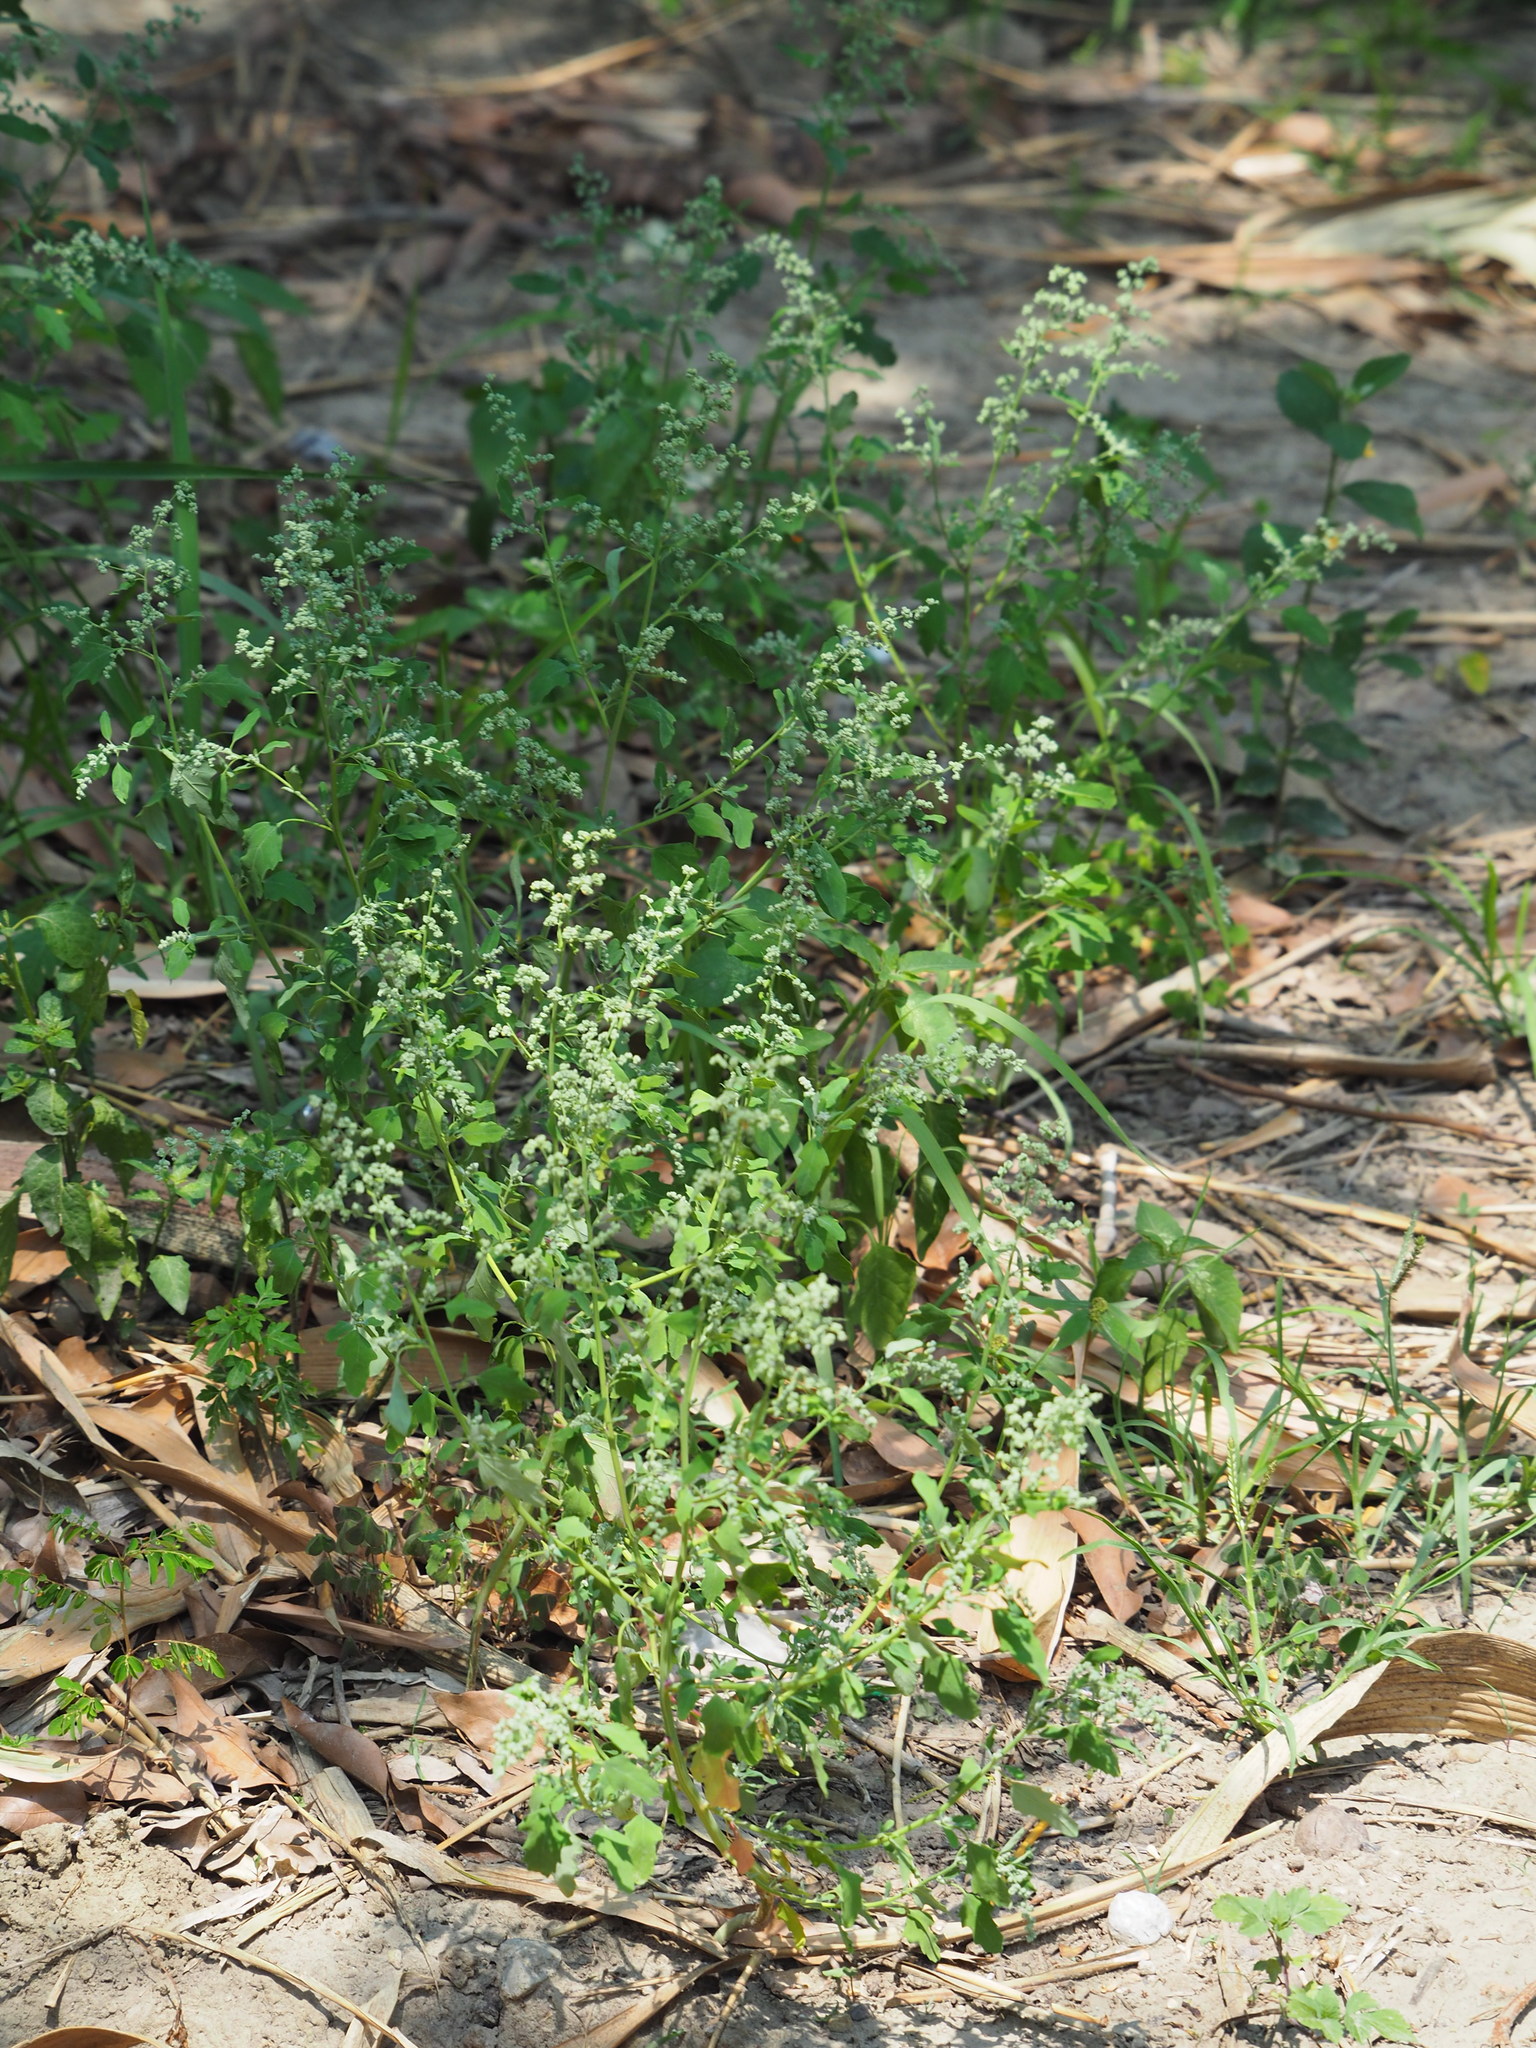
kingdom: Plantae
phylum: Tracheophyta
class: Magnoliopsida
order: Caryophyllales
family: Amaranthaceae
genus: Chenopodium
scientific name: Chenopodium ficifolium
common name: Fig-leaved goosefoot
